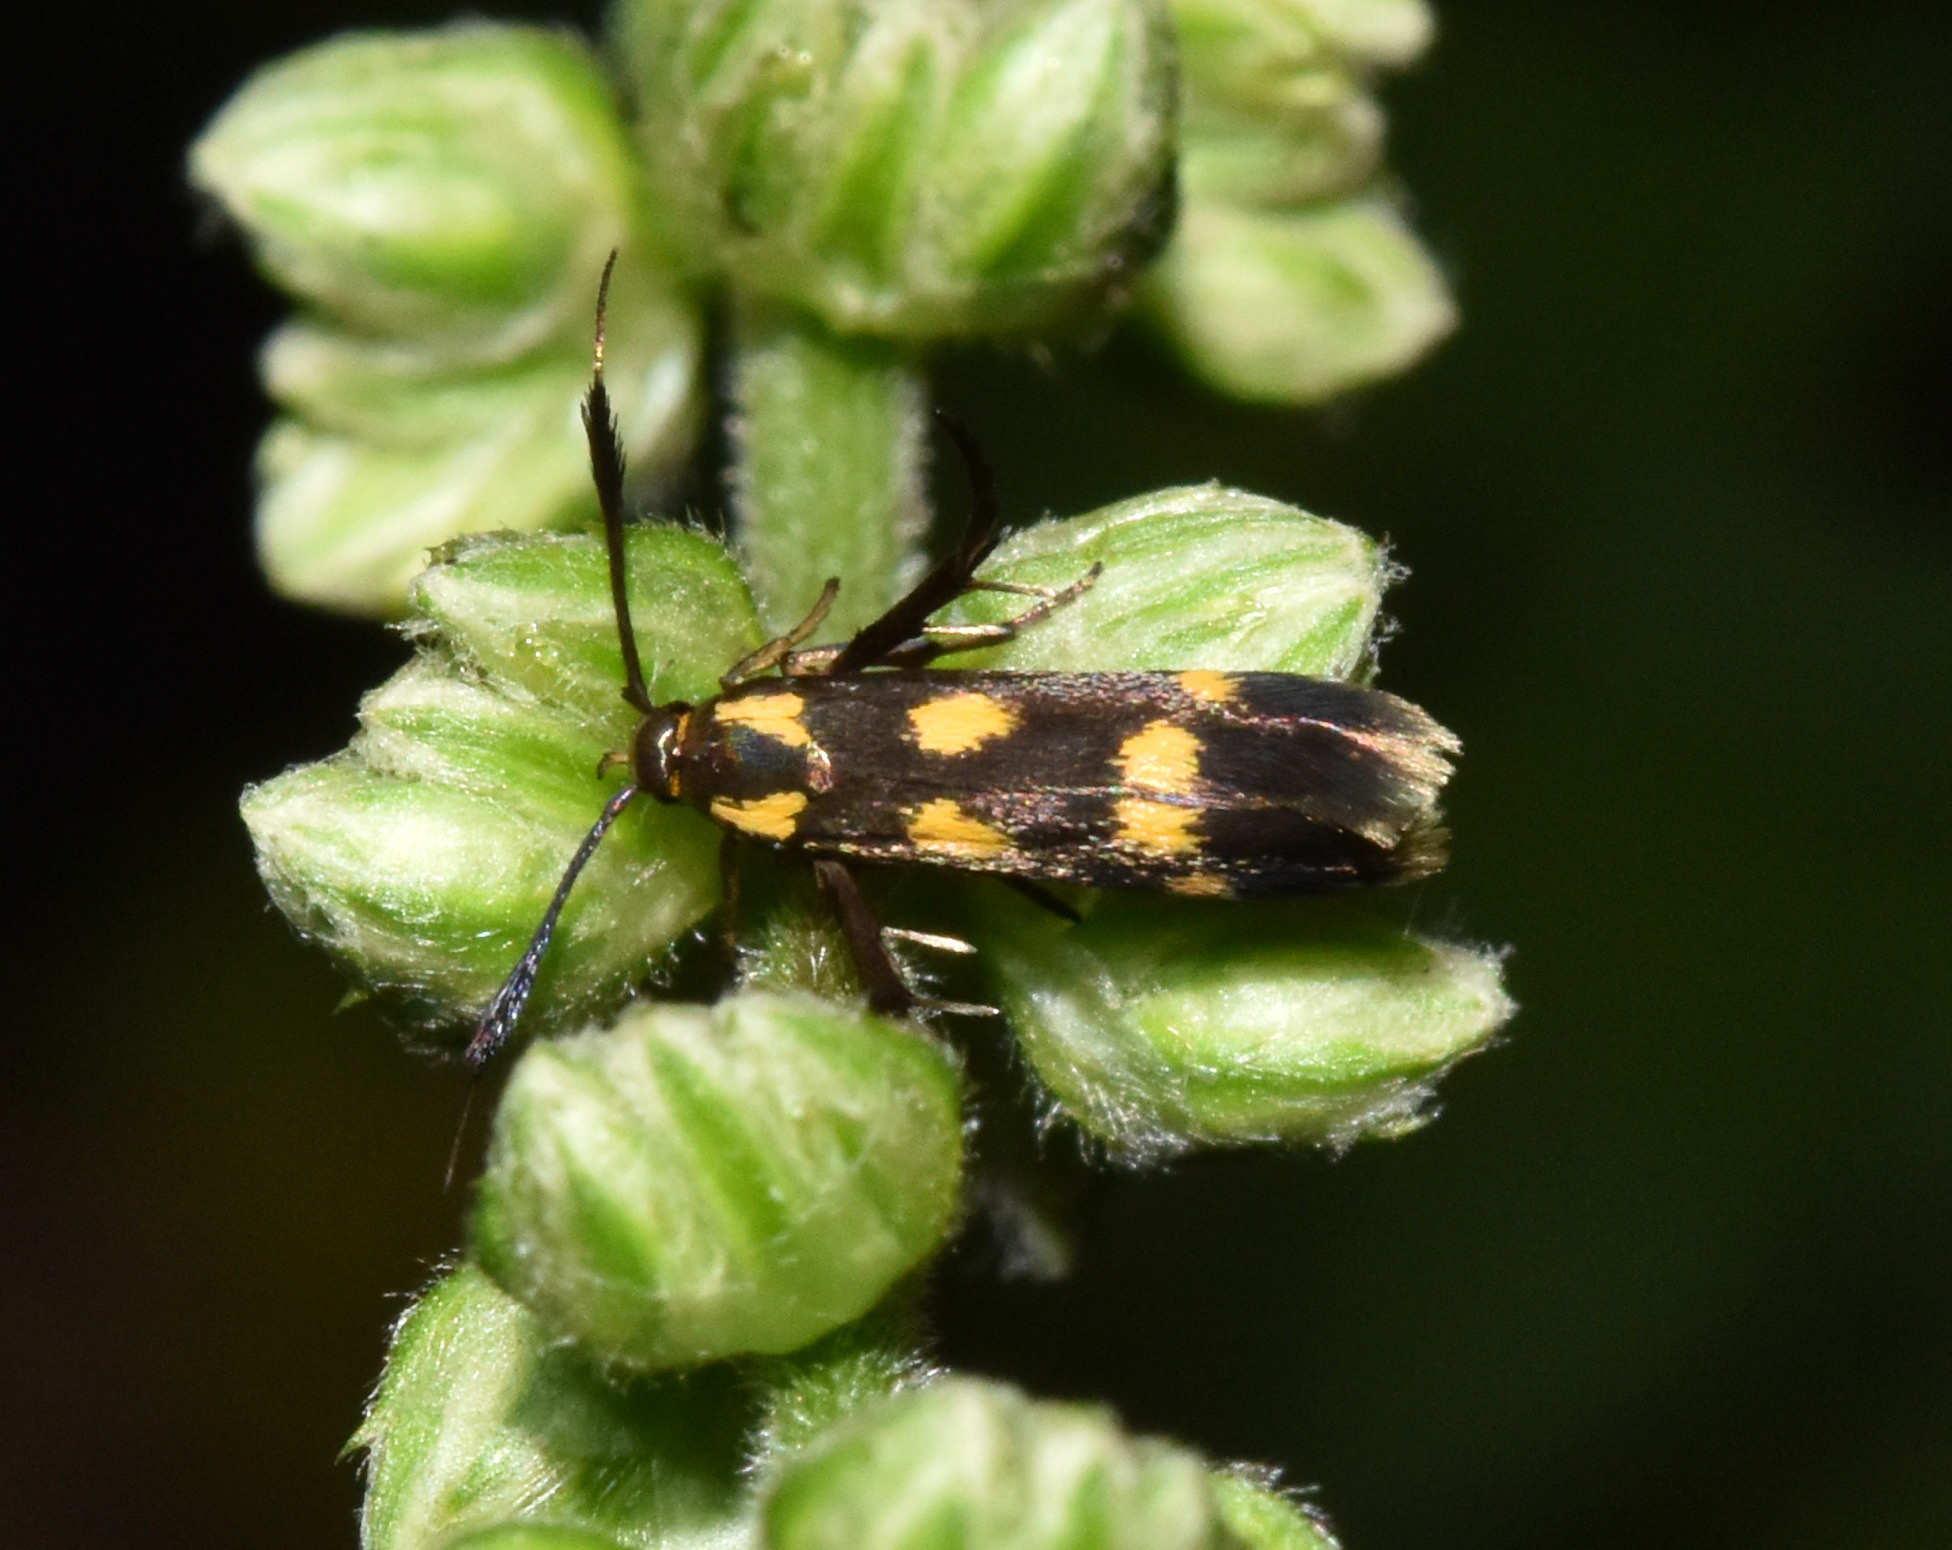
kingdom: Animalia
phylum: Arthropoda
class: Insecta
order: Lepidoptera
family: Scythrididae
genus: Eretmocera
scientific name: Eretmocera syleuta
